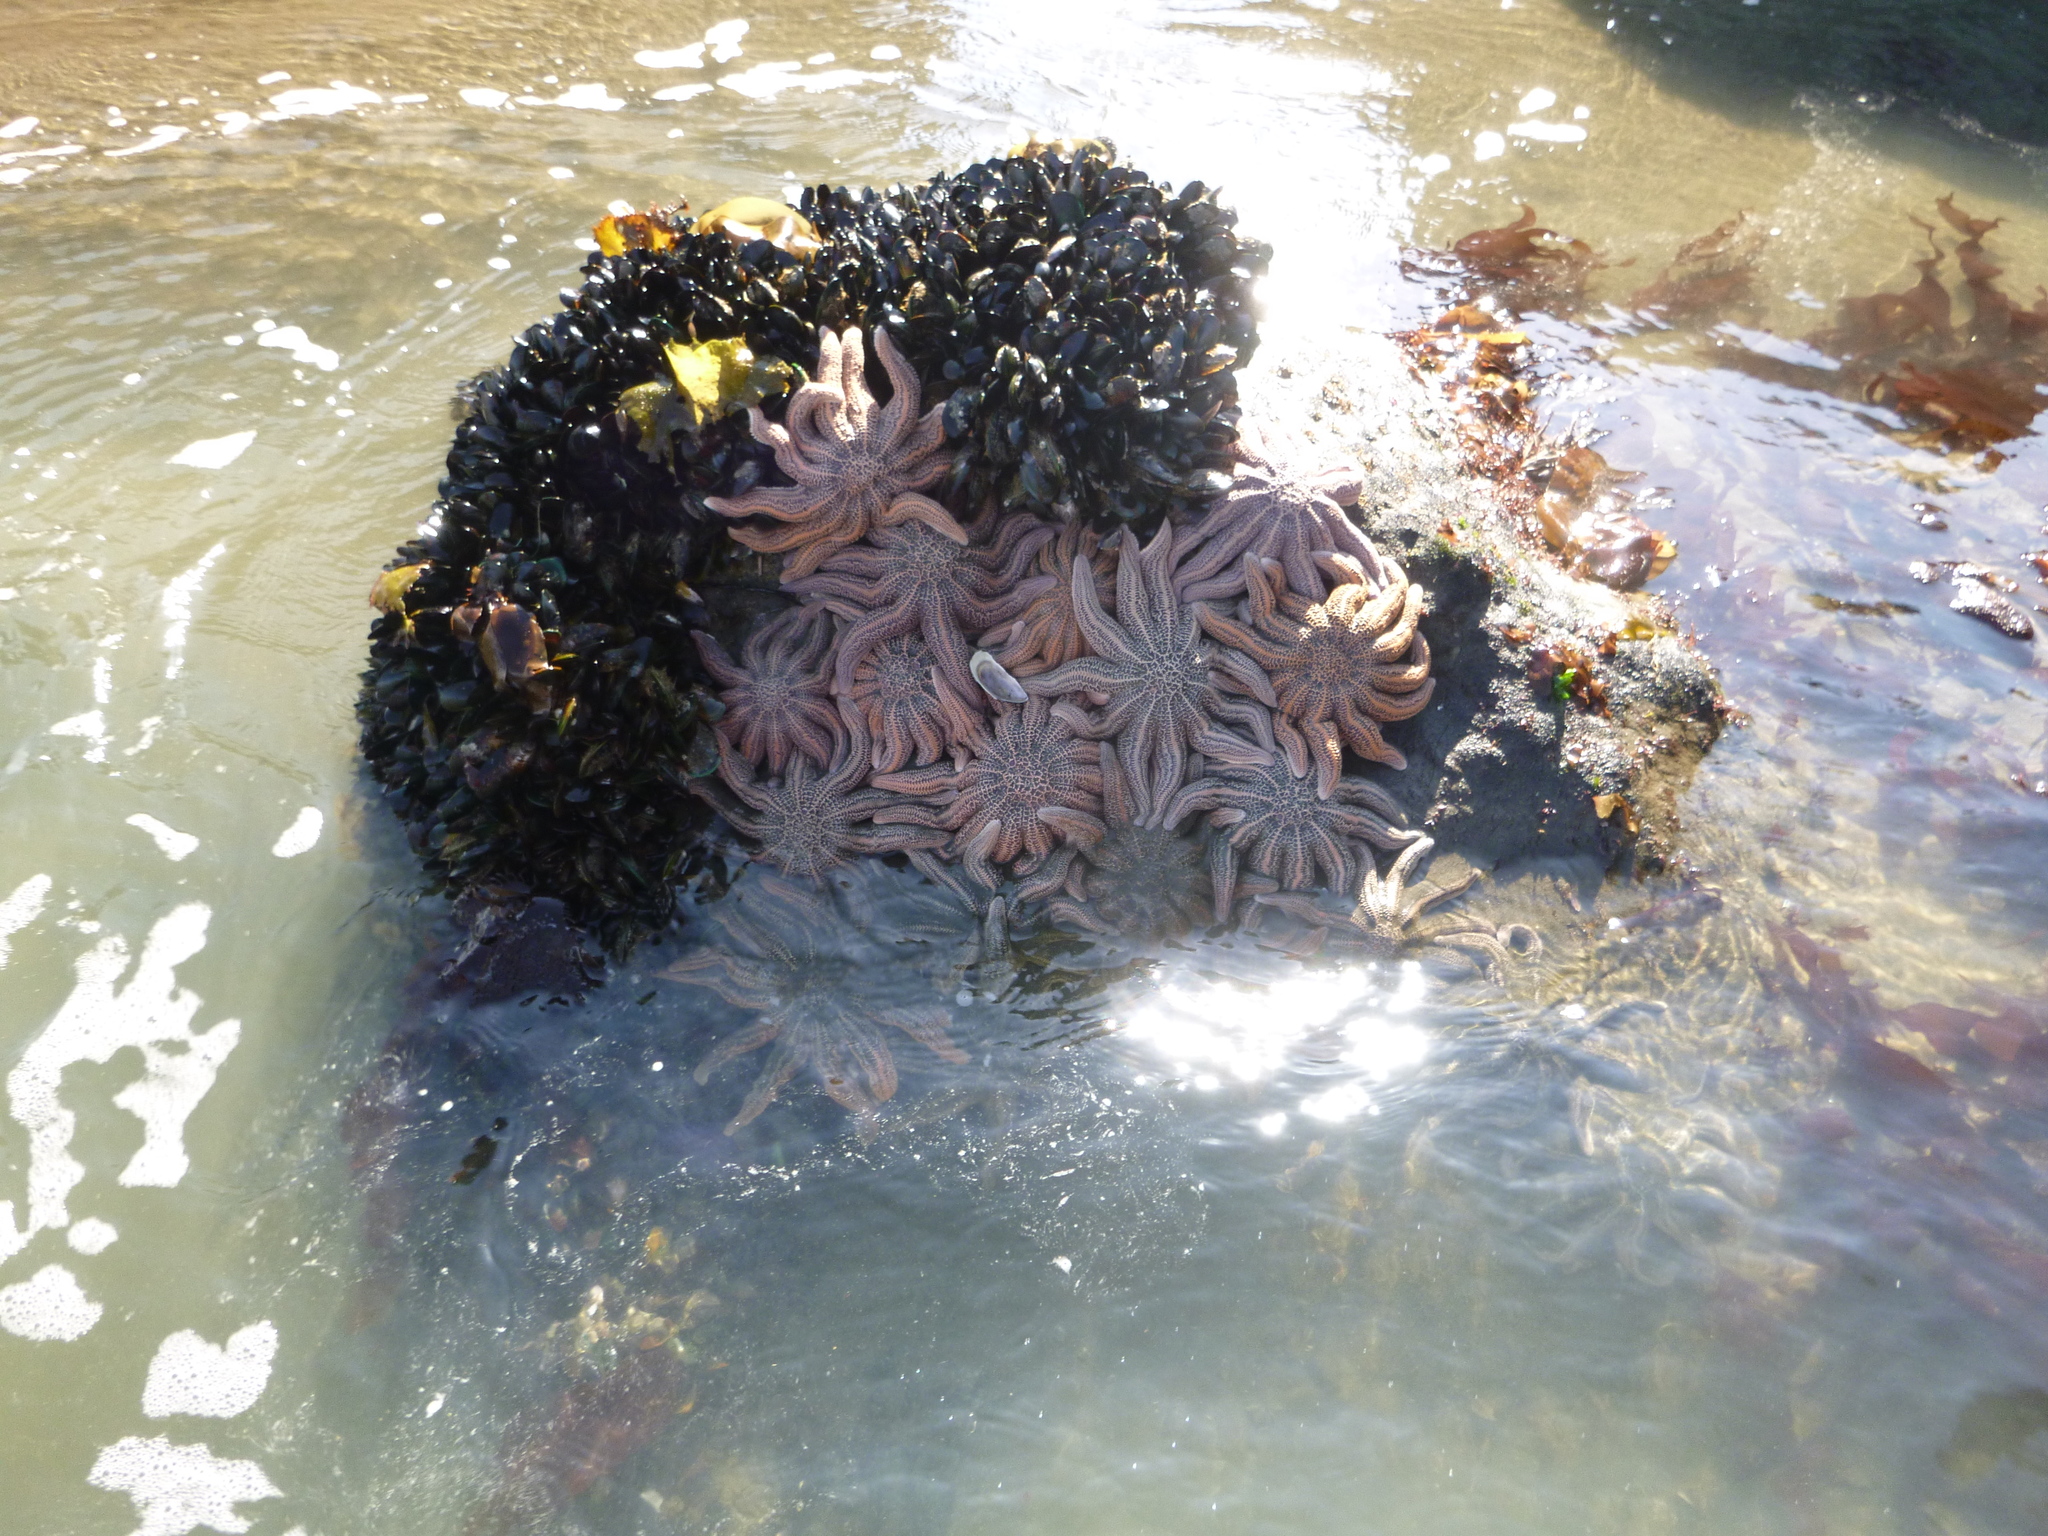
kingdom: Animalia
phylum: Echinodermata
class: Asteroidea
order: Forcipulatida
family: Stichasteridae
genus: Stichaster
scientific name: Stichaster australis
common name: Reef starfish
